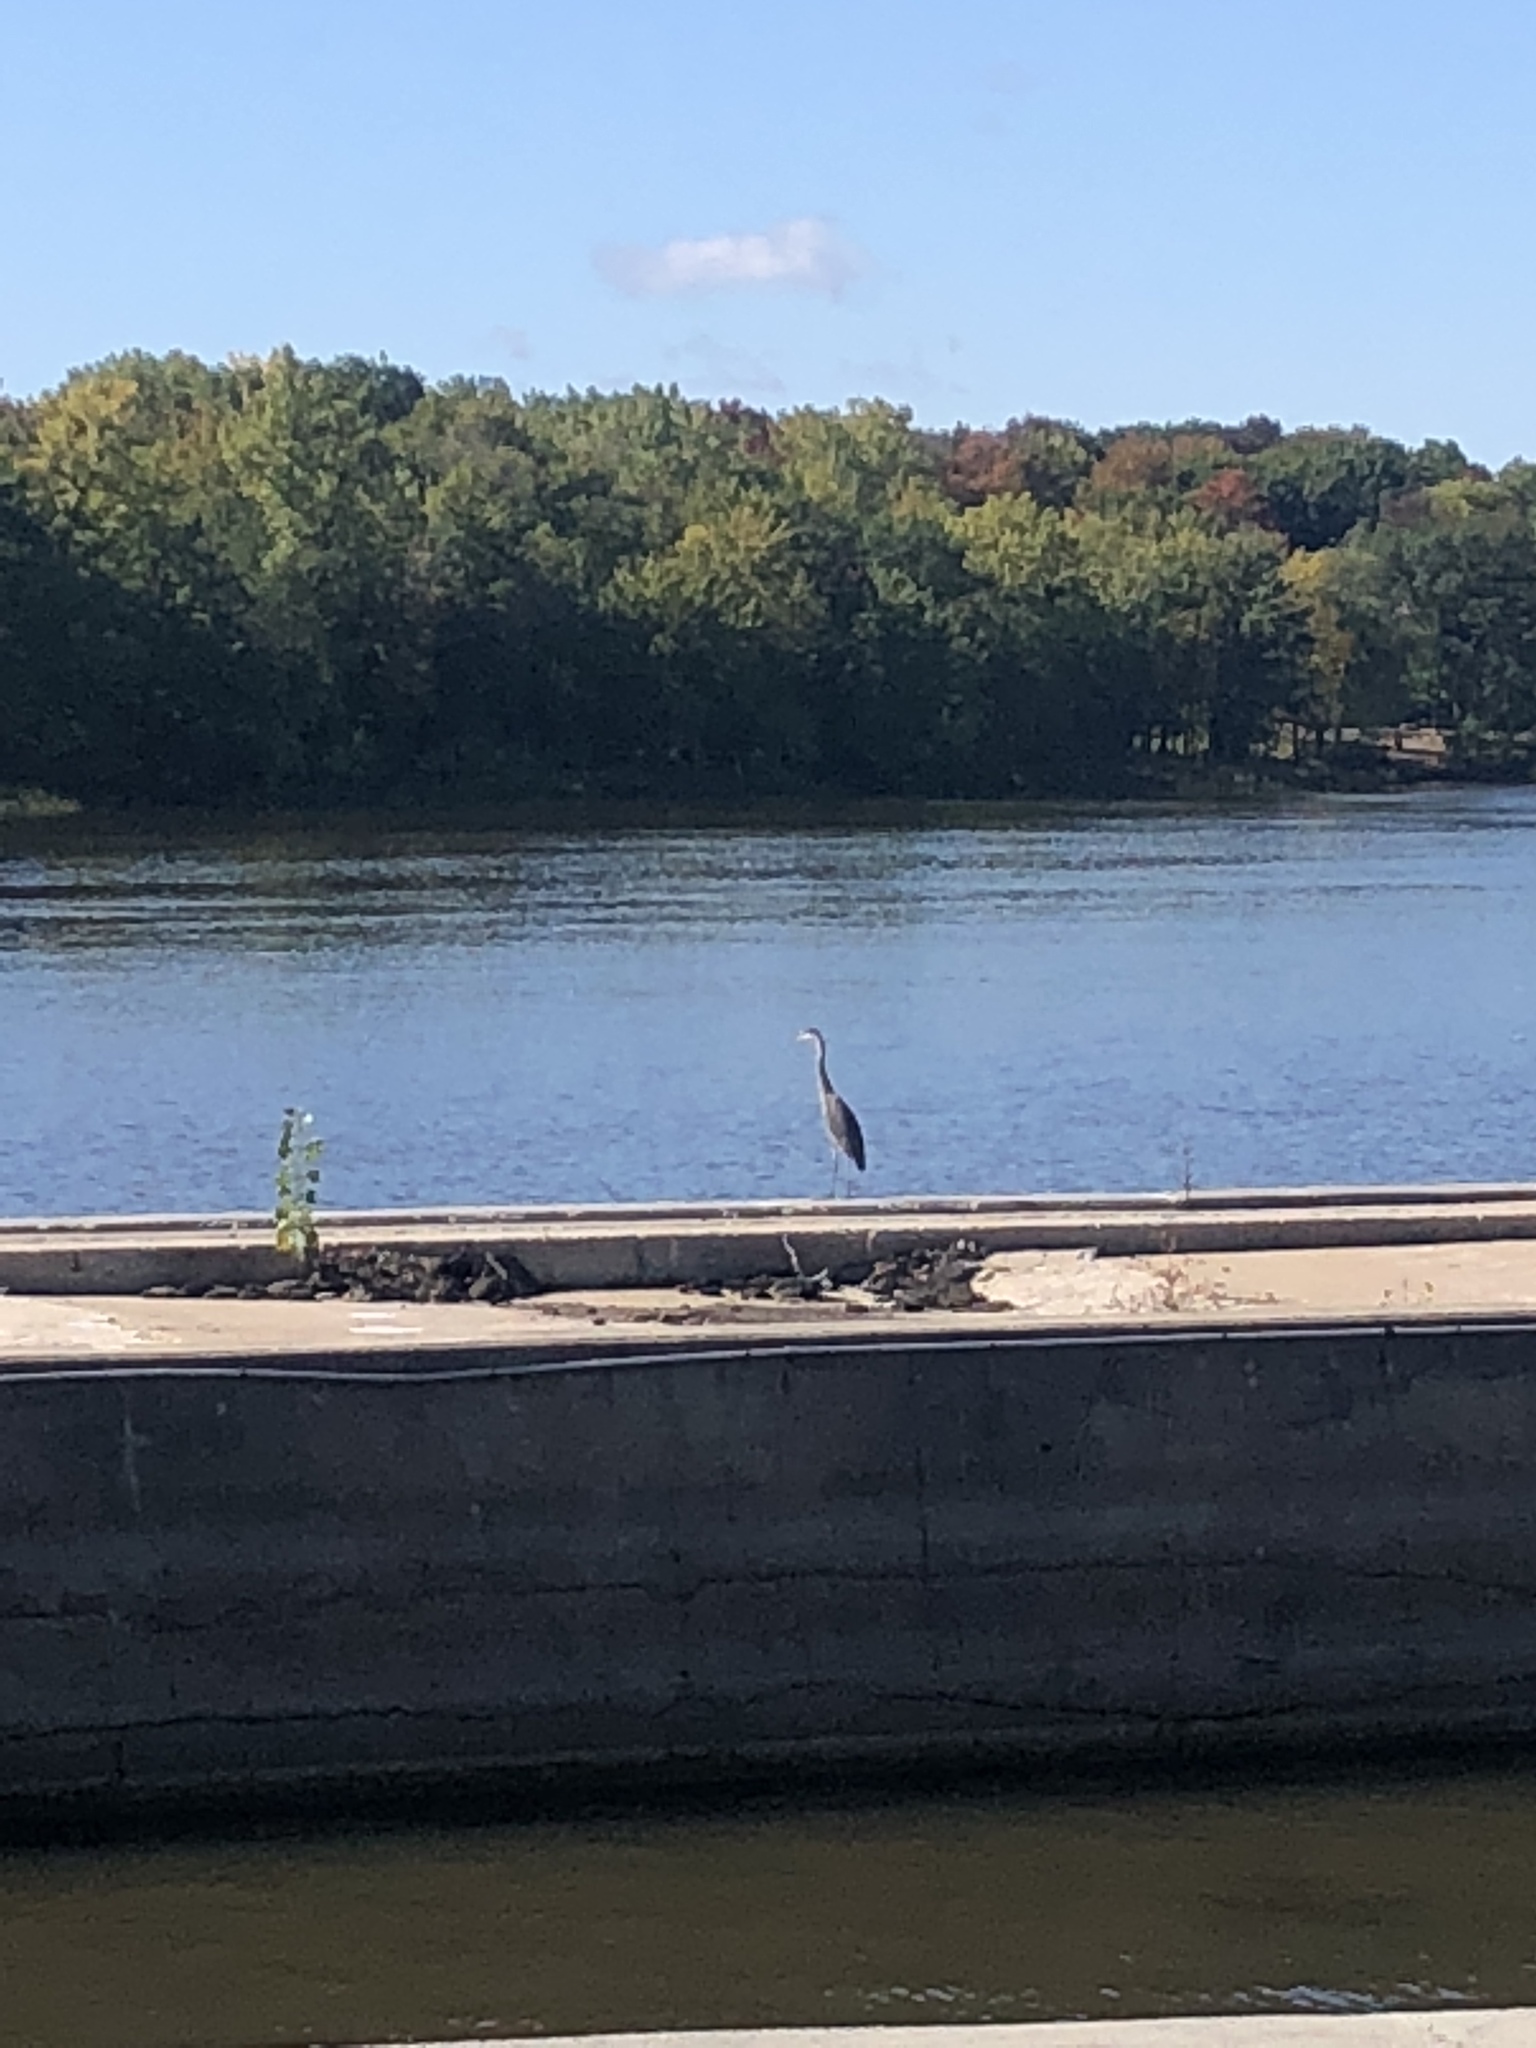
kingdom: Animalia
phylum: Chordata
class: Aves
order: Pelecaniformes
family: Ardeidae
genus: Ardea
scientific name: Ardea herodias
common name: Great blue heron
